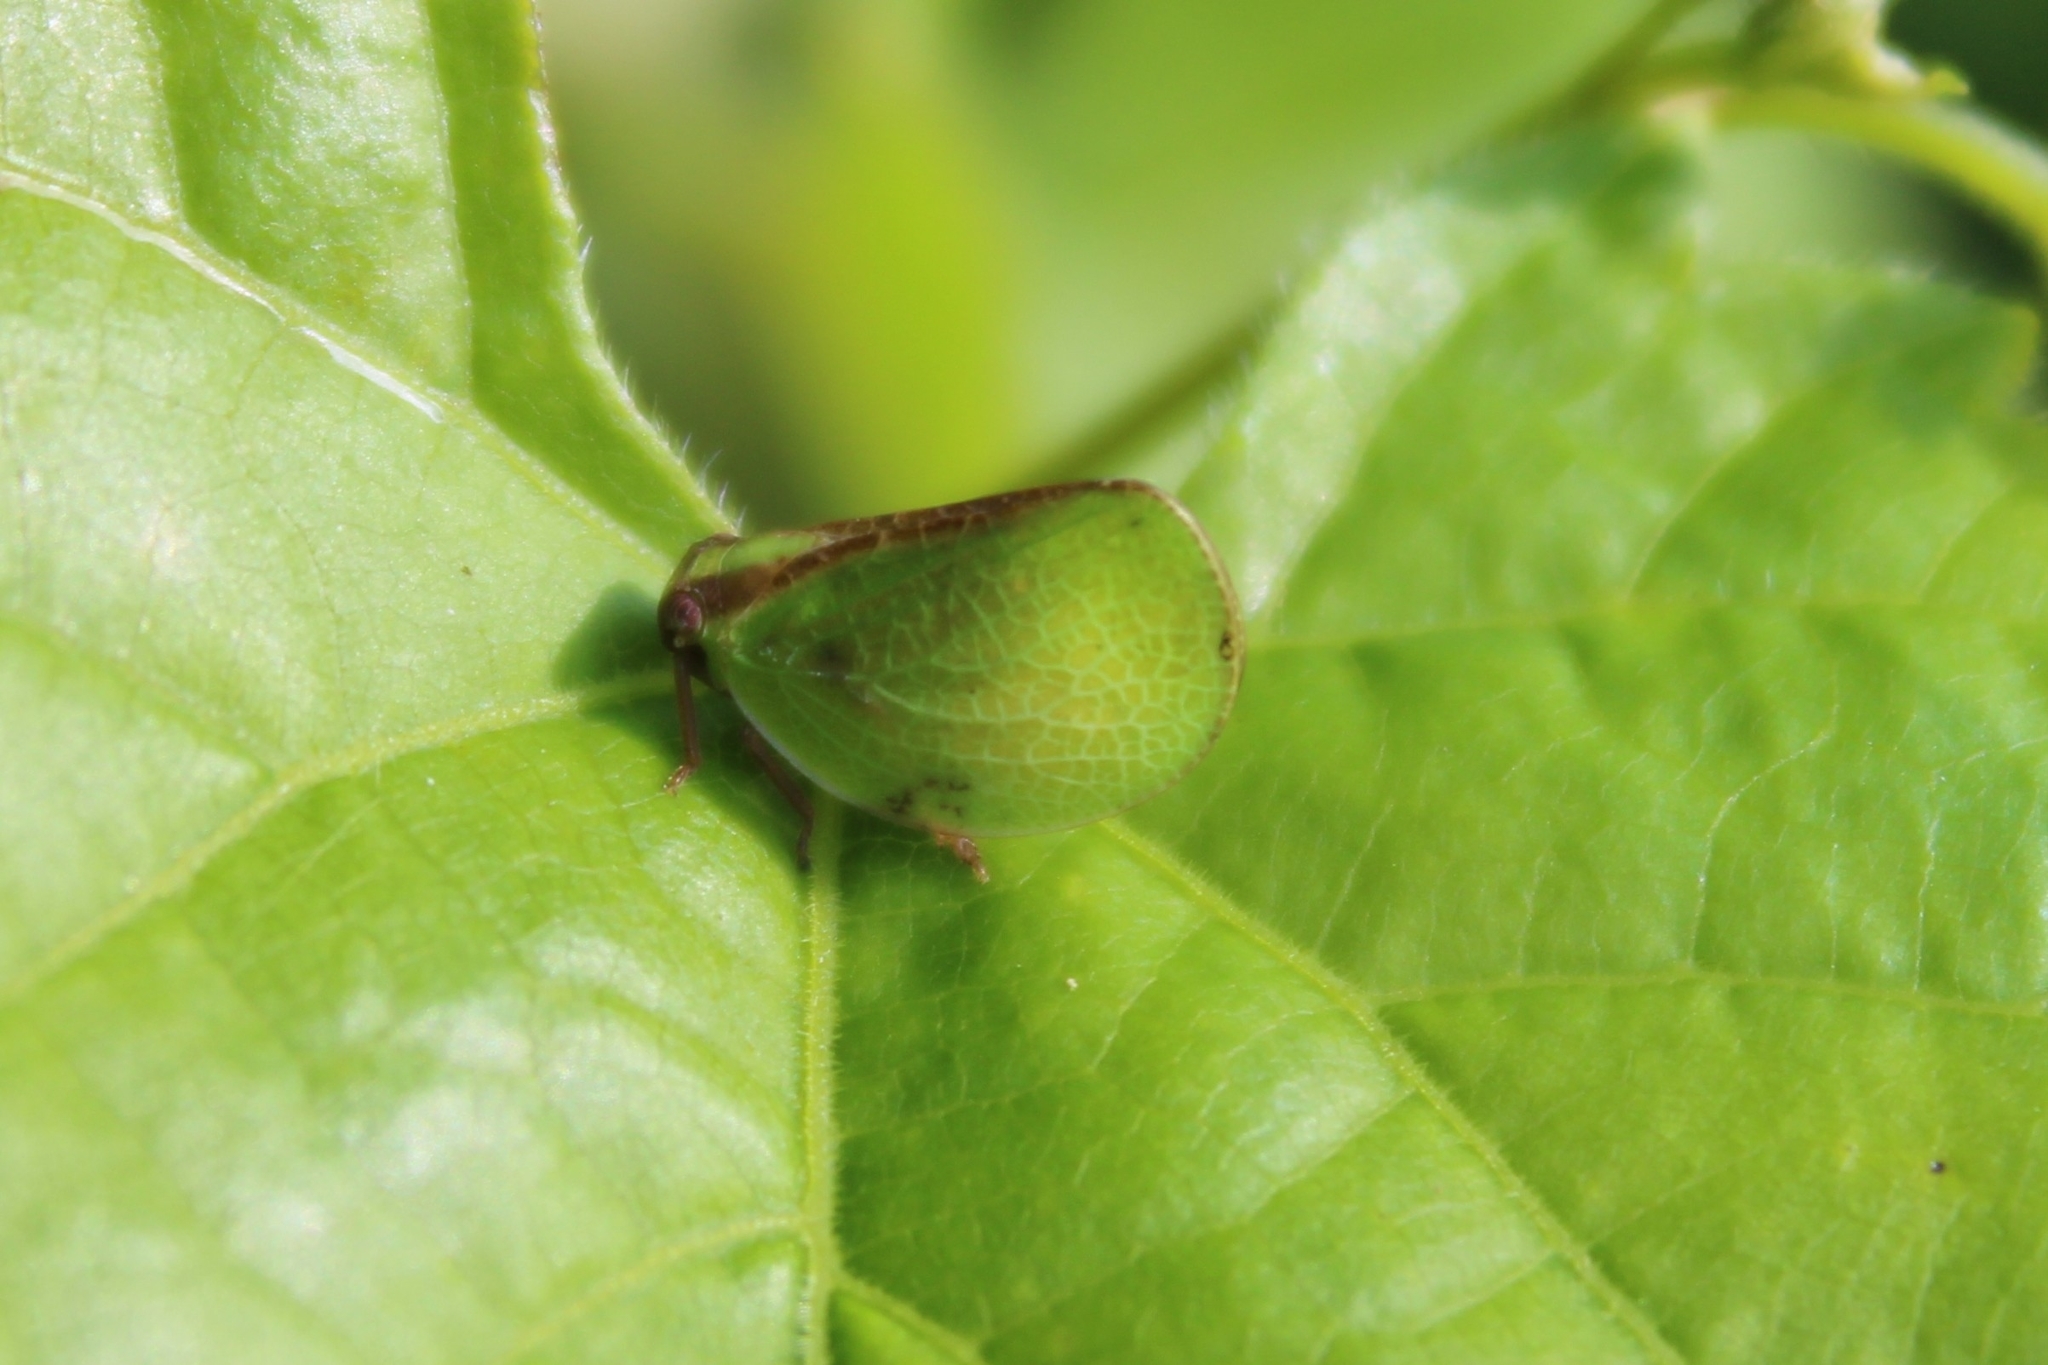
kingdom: Animalia
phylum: Arthropoda
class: Insecta
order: Hemiptera
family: Acanaloniidae
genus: Acanalonia
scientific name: Acanalonia bivittata
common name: Two-striped planthopper
